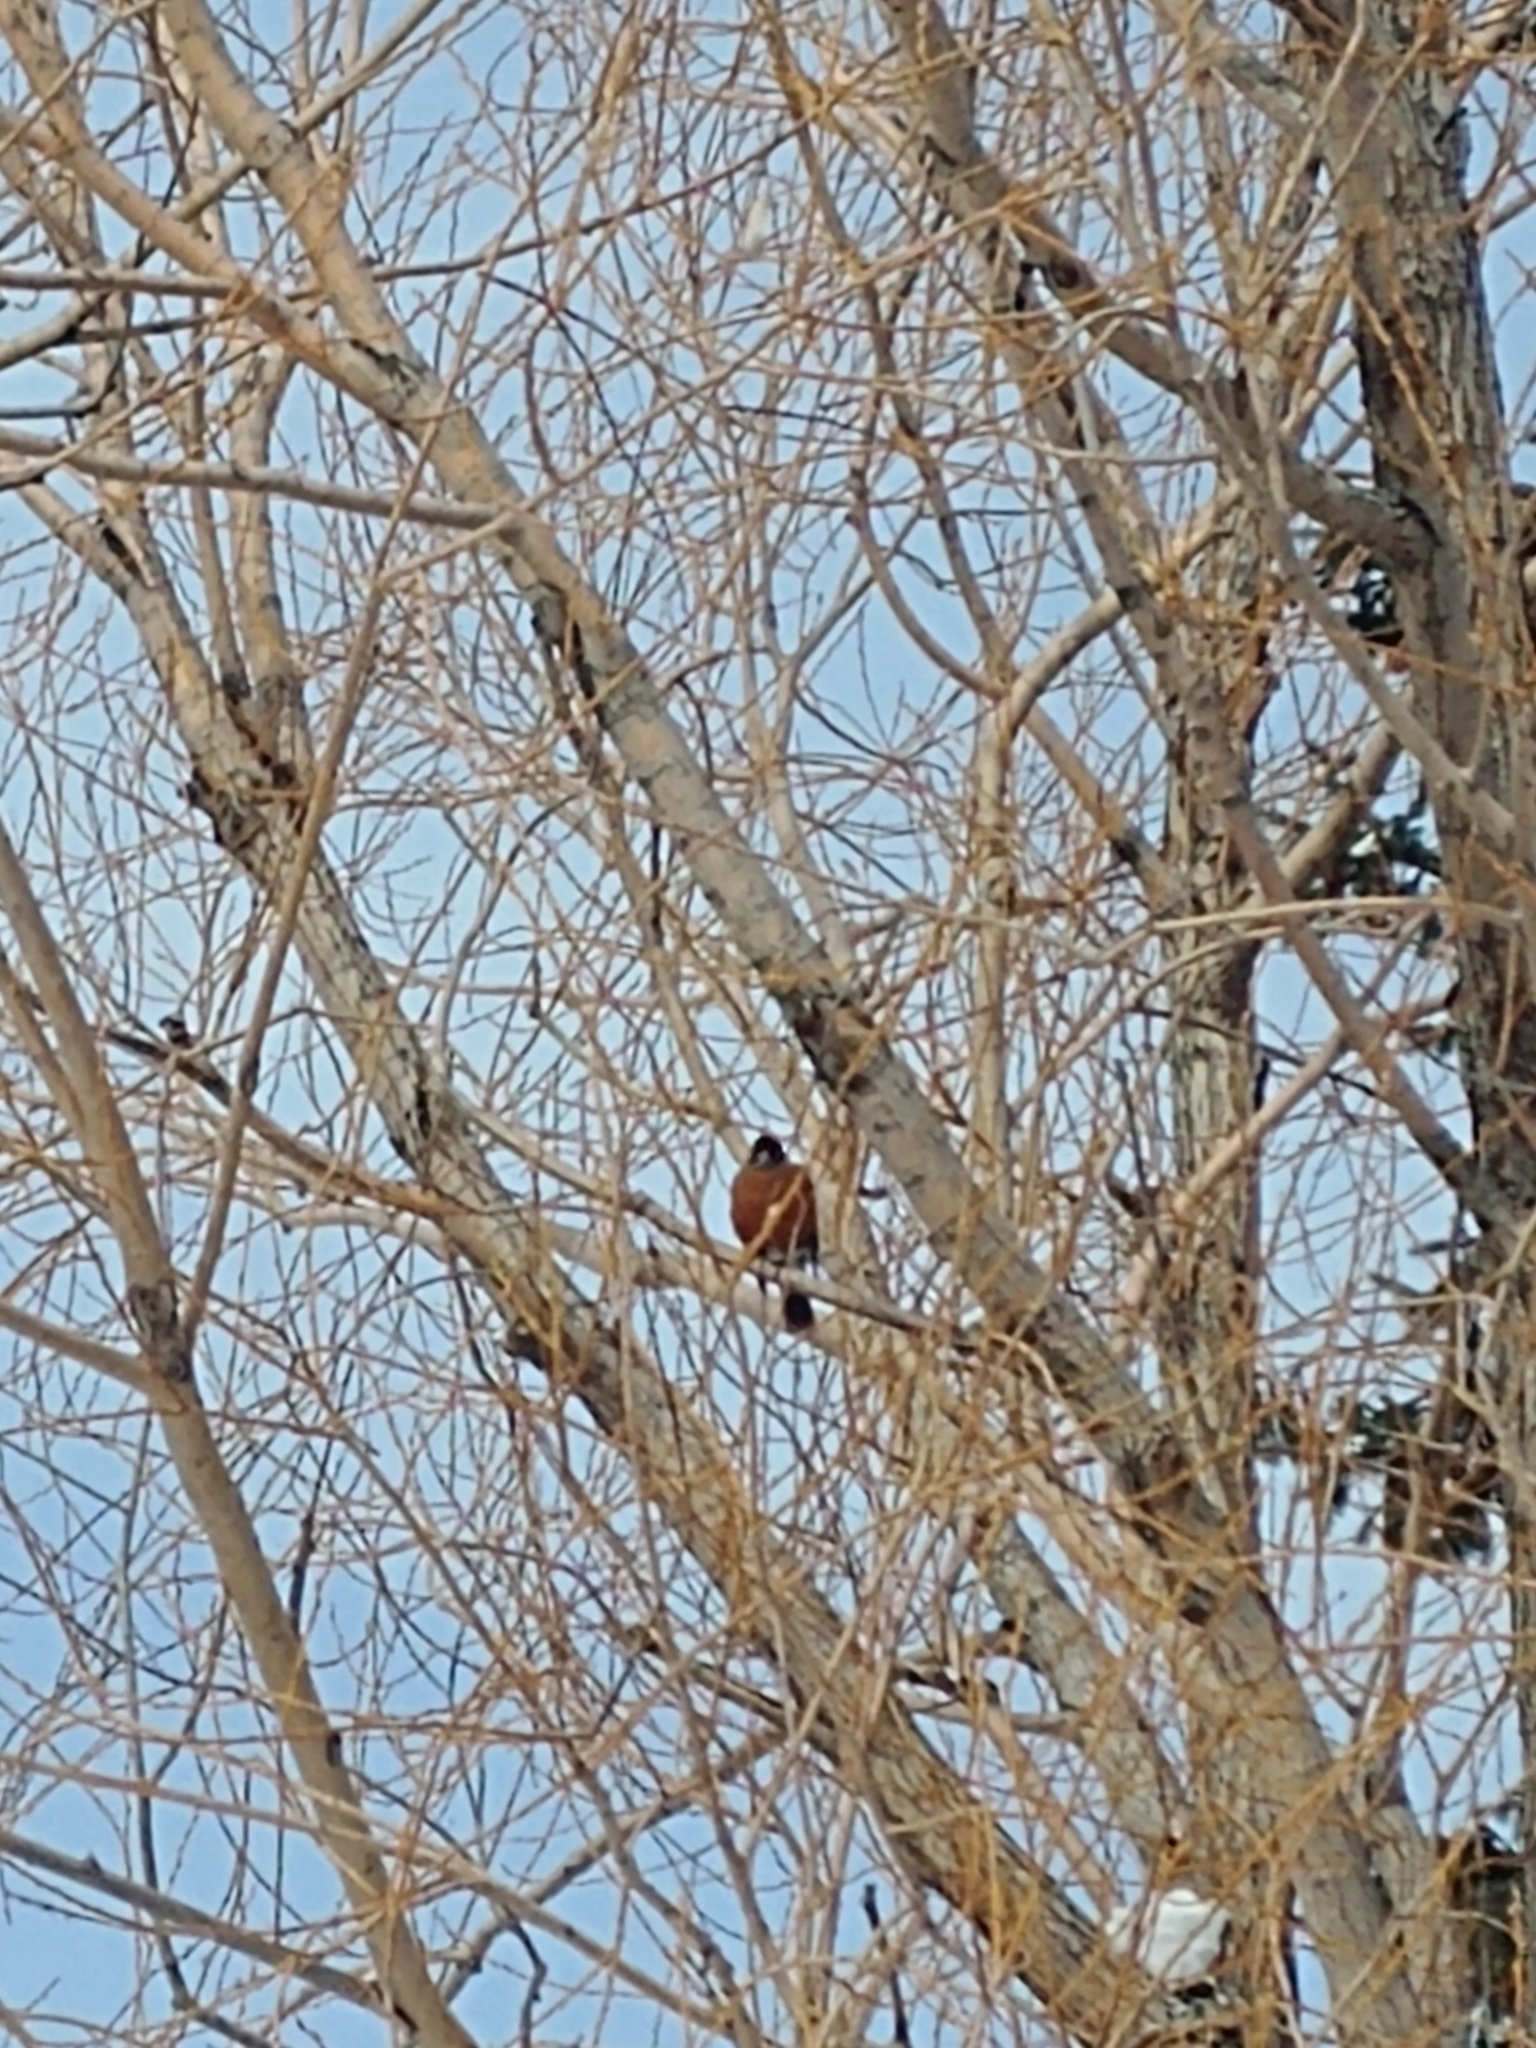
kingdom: Animalia
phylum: Chordata
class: Aves
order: Passeriformes
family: Turdidae
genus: Turdus
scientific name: Turdus migratorius
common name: American robin
